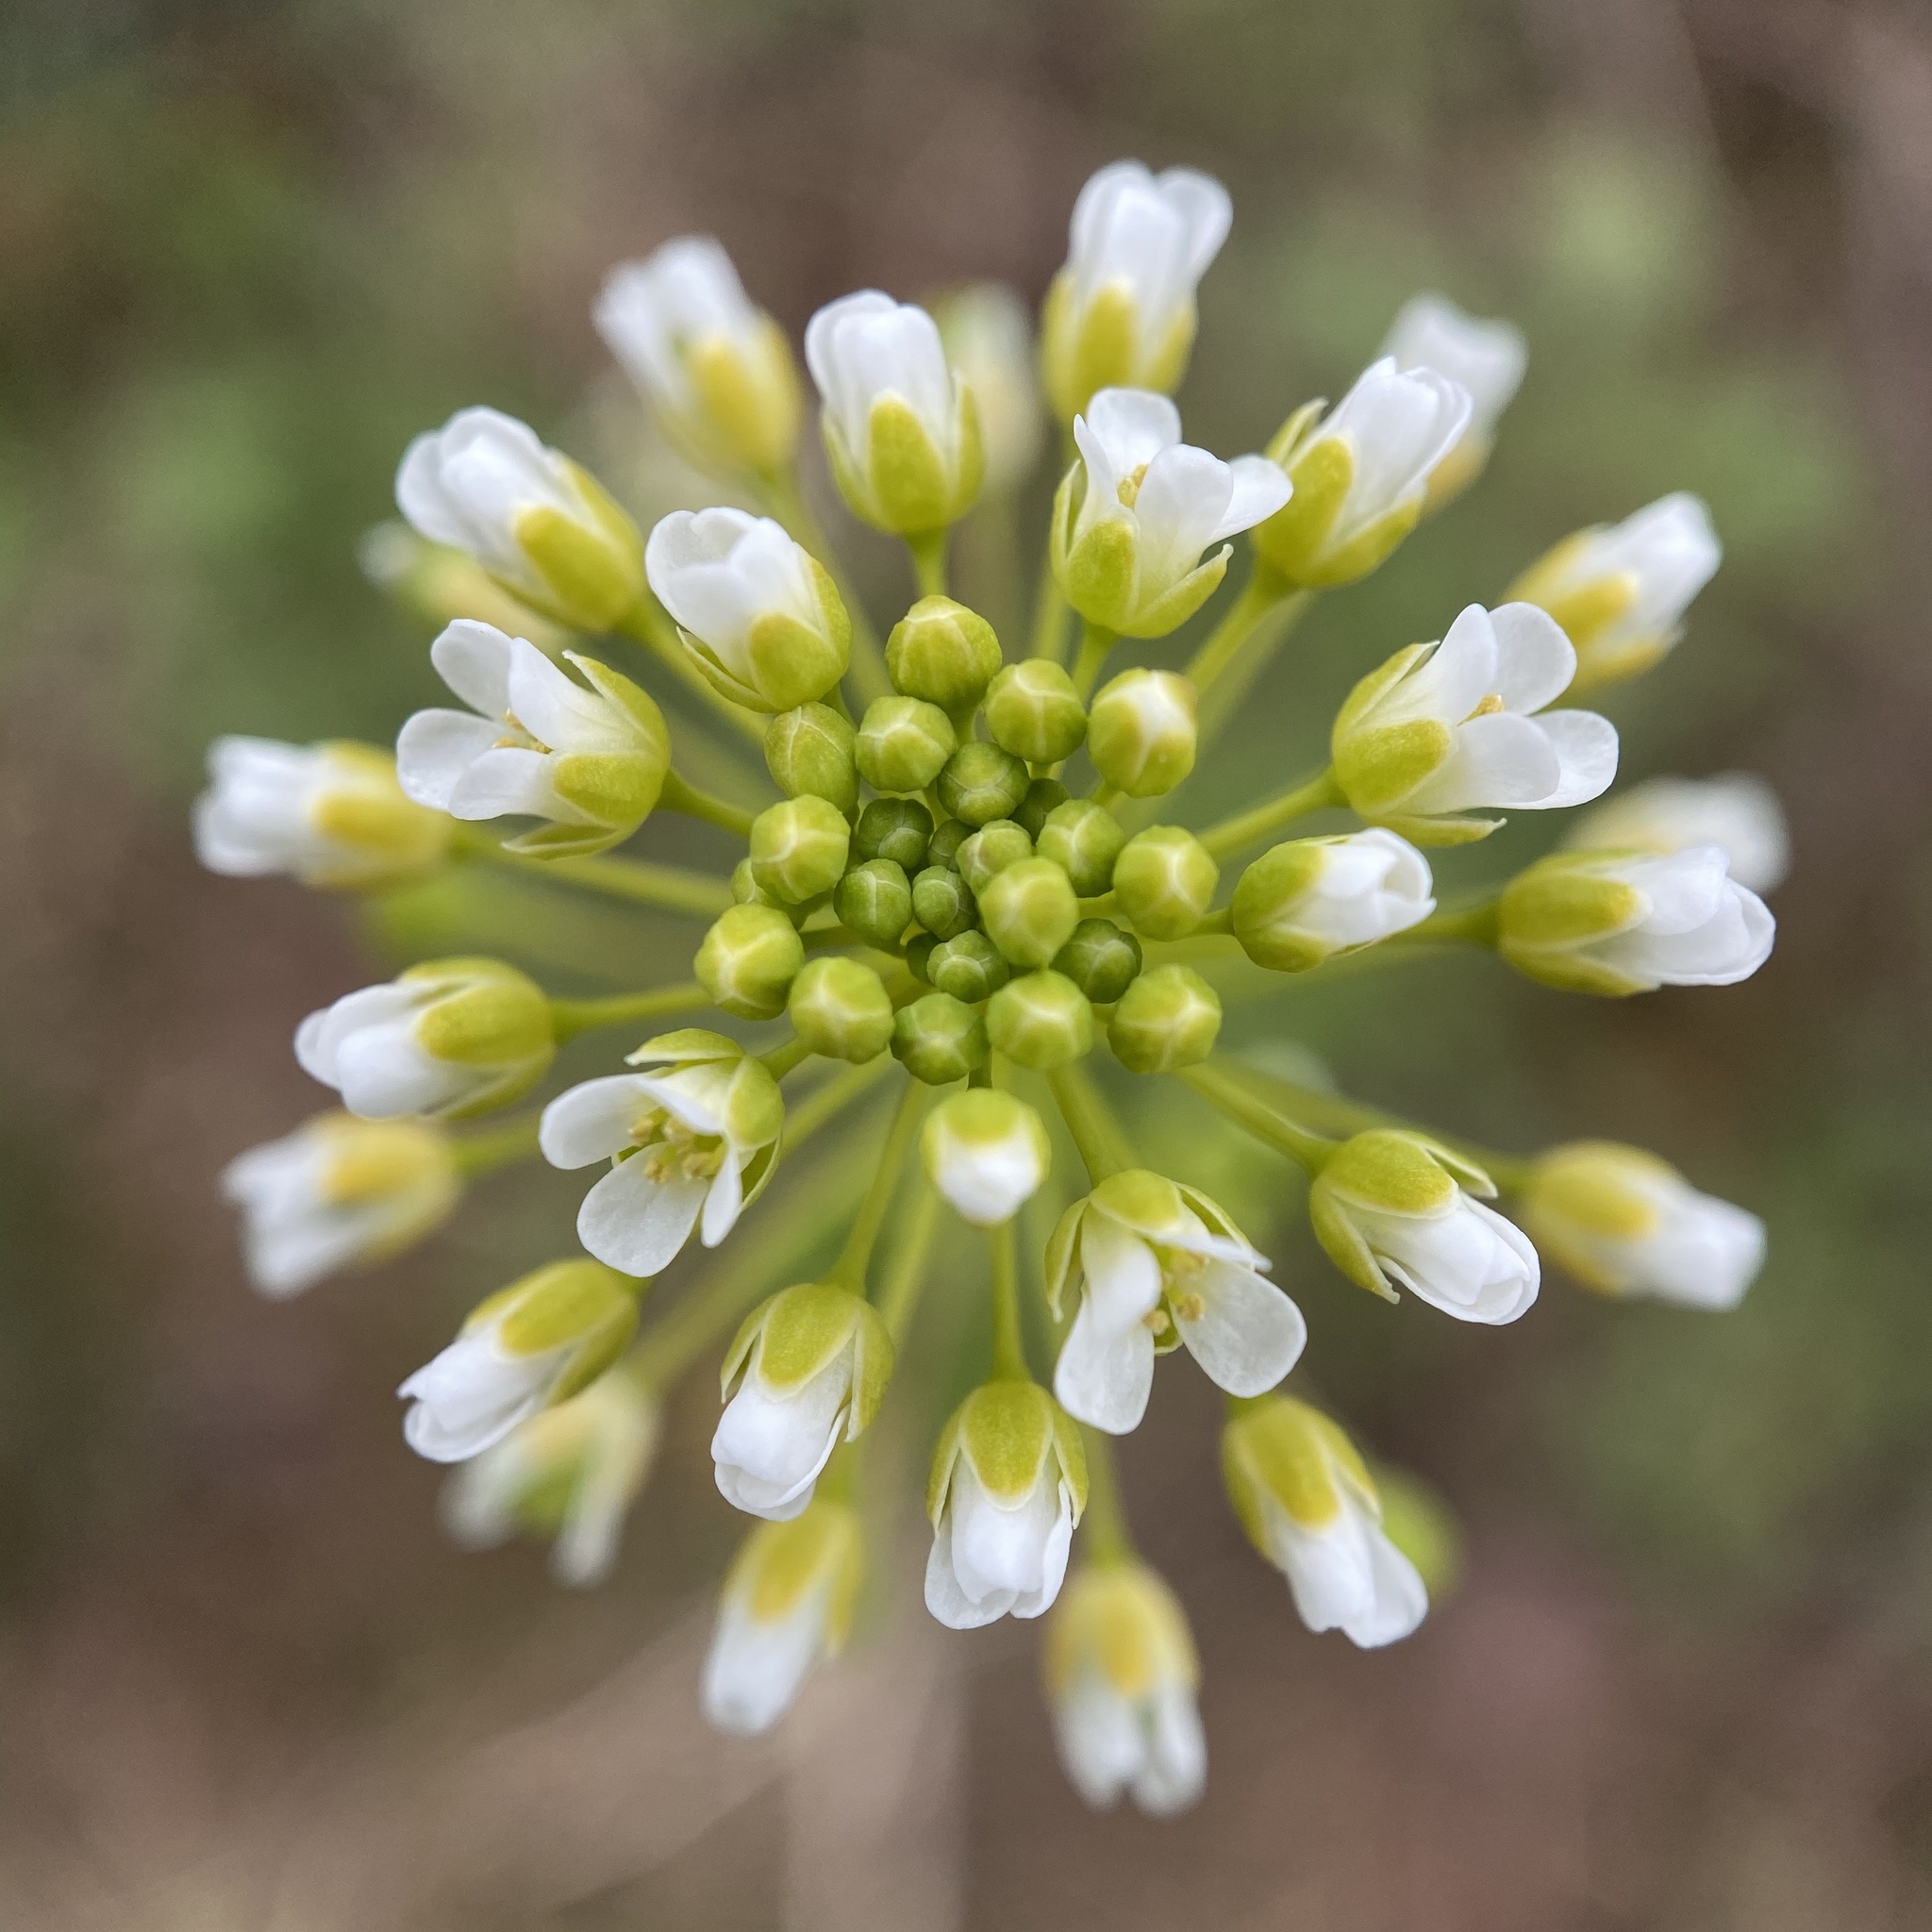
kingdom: Plantae
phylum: Tracheophyta
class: Magnoliopsida
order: Brassicales
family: Brassicaceae
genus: Mummenhoffia
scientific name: Mummenhoffia alliacea
